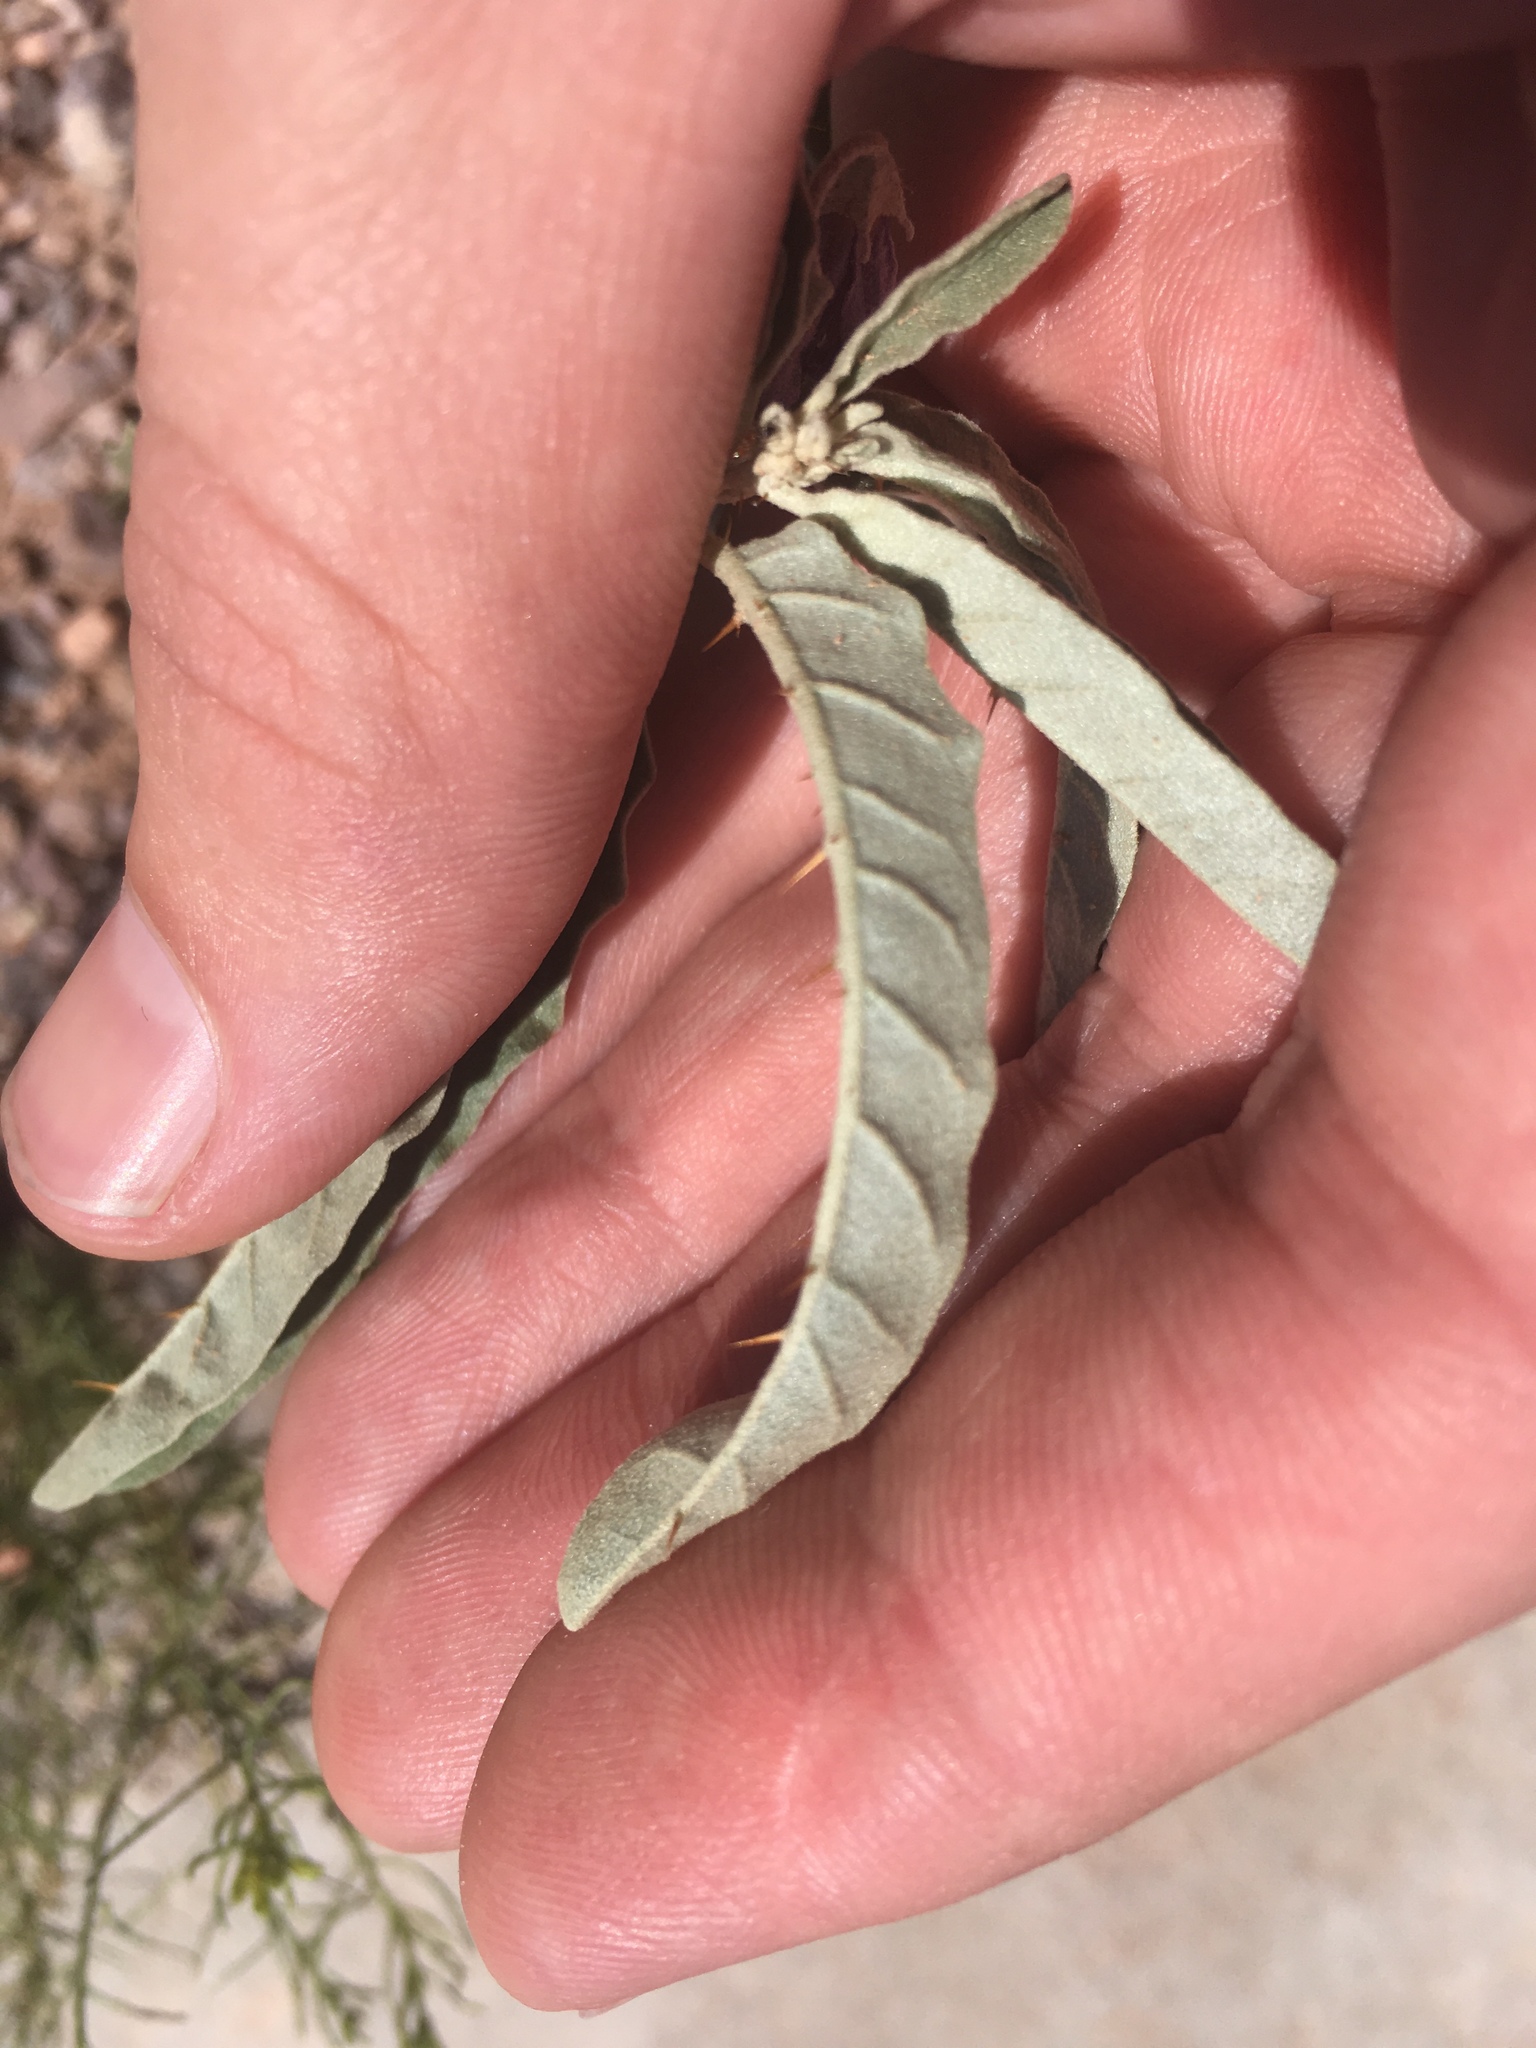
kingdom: Plantae
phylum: Tracheophyta
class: Magnoliopsida
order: Solanales
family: Solanaceae
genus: Solanum
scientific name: Solanum elaeagnifolium
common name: Silverleaf nightshade
